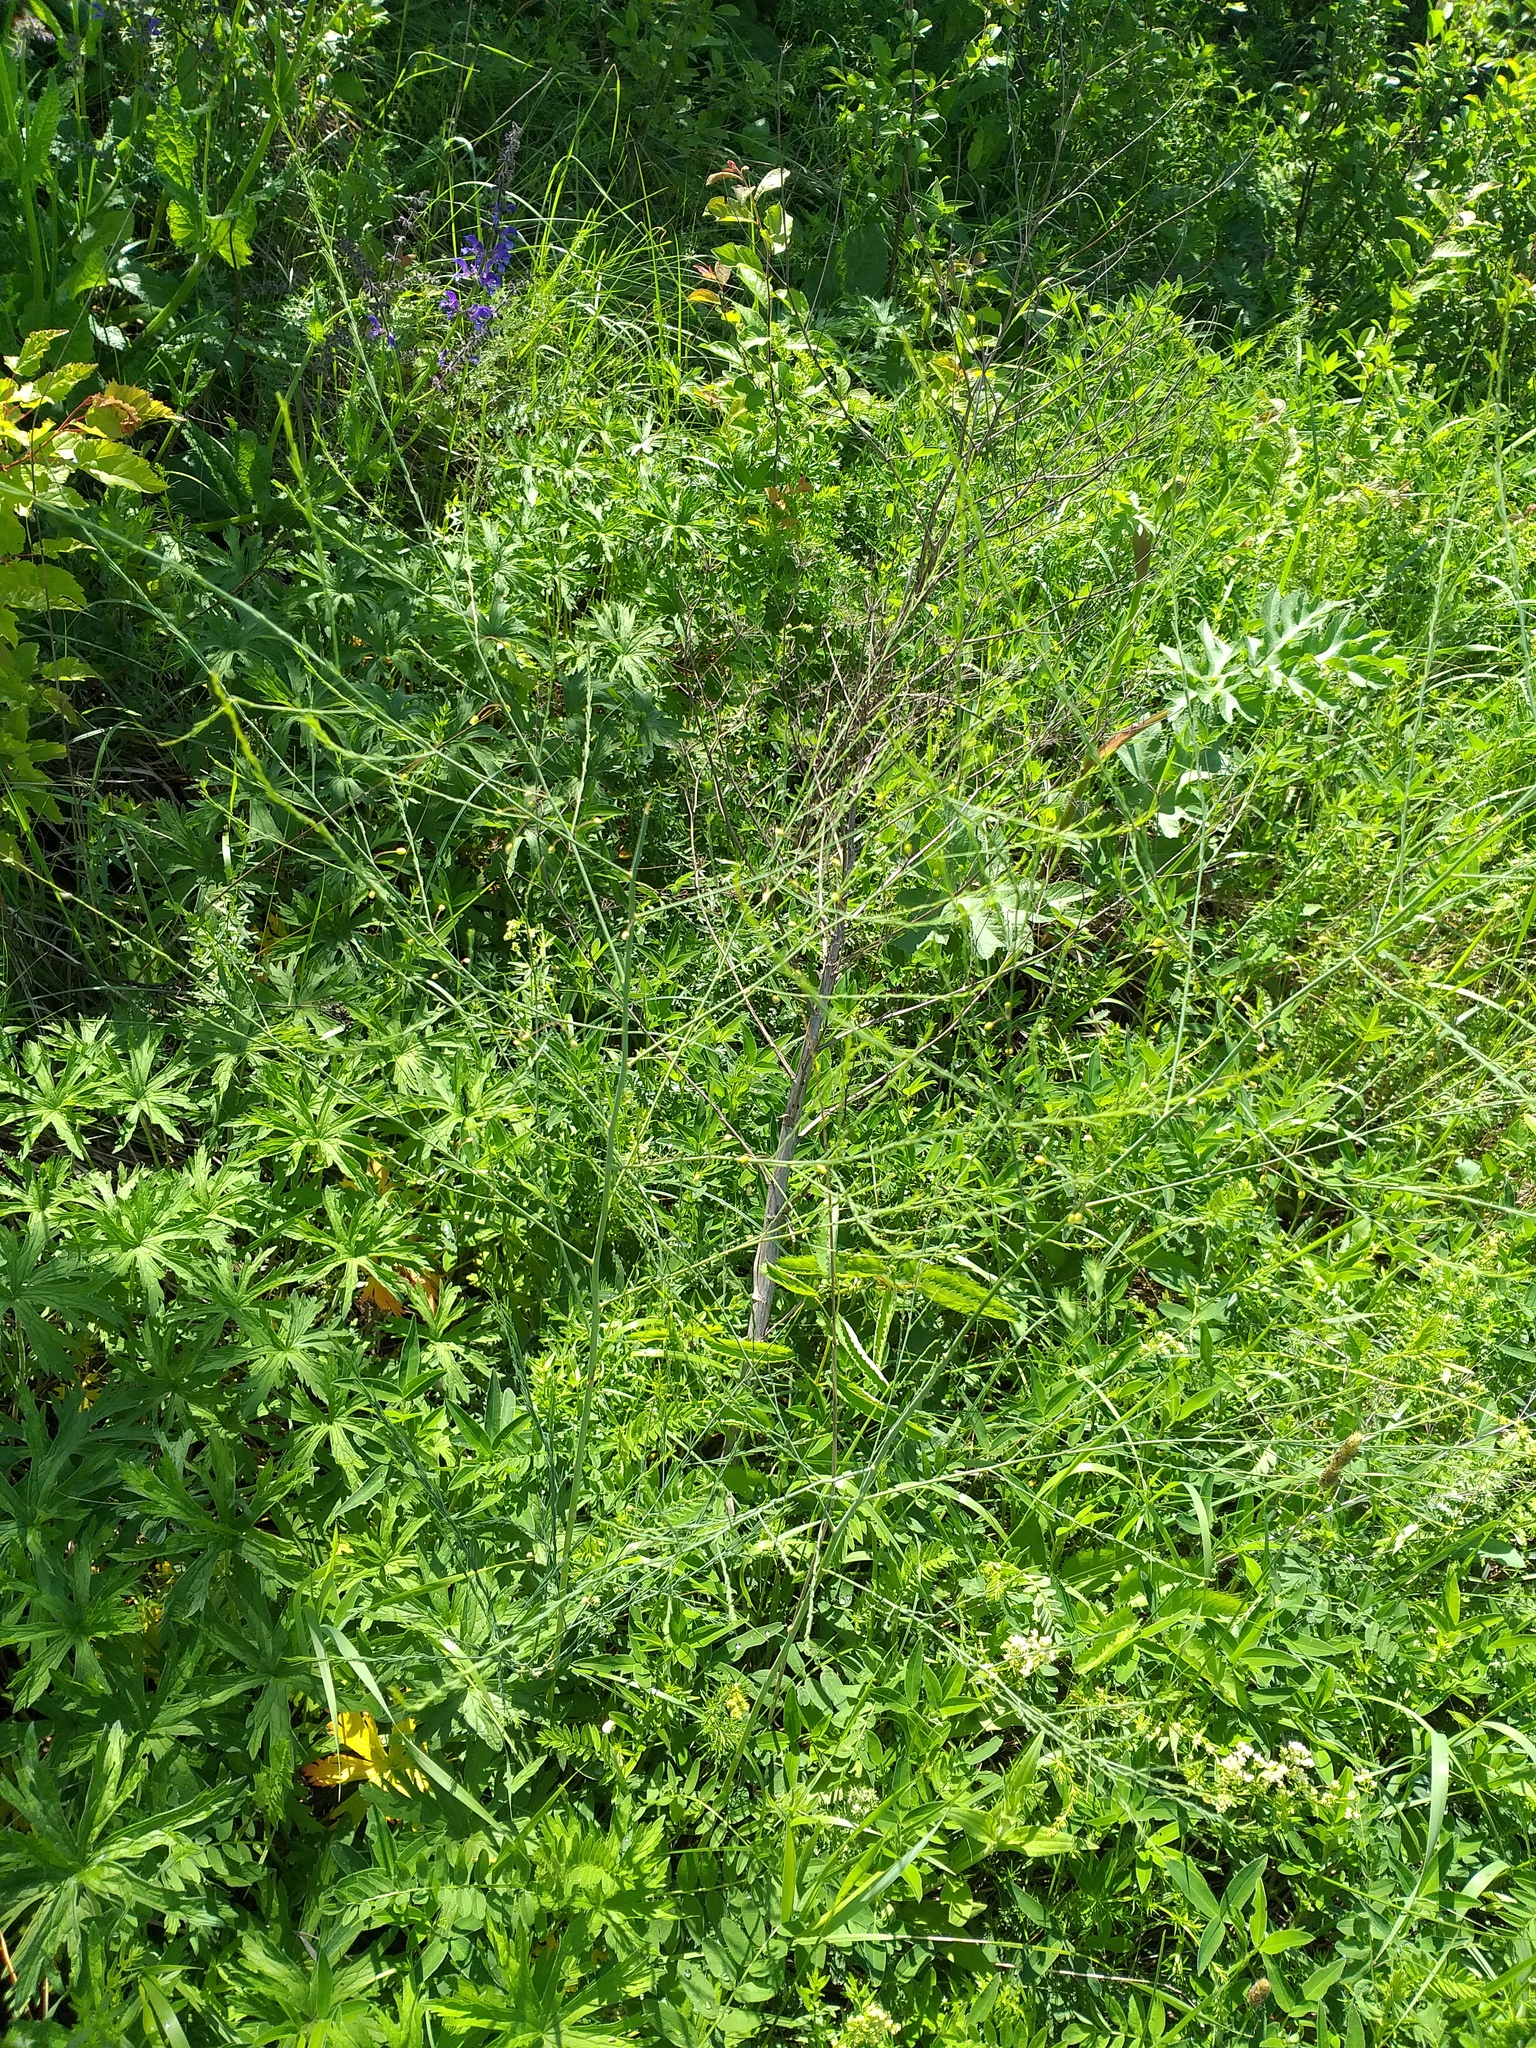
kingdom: Plantae
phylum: Tracheophyta
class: Liliopsida
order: Asparagales
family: Asparagaceae
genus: Asparagus
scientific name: Asparagus officinalis
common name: Garden asparagus
